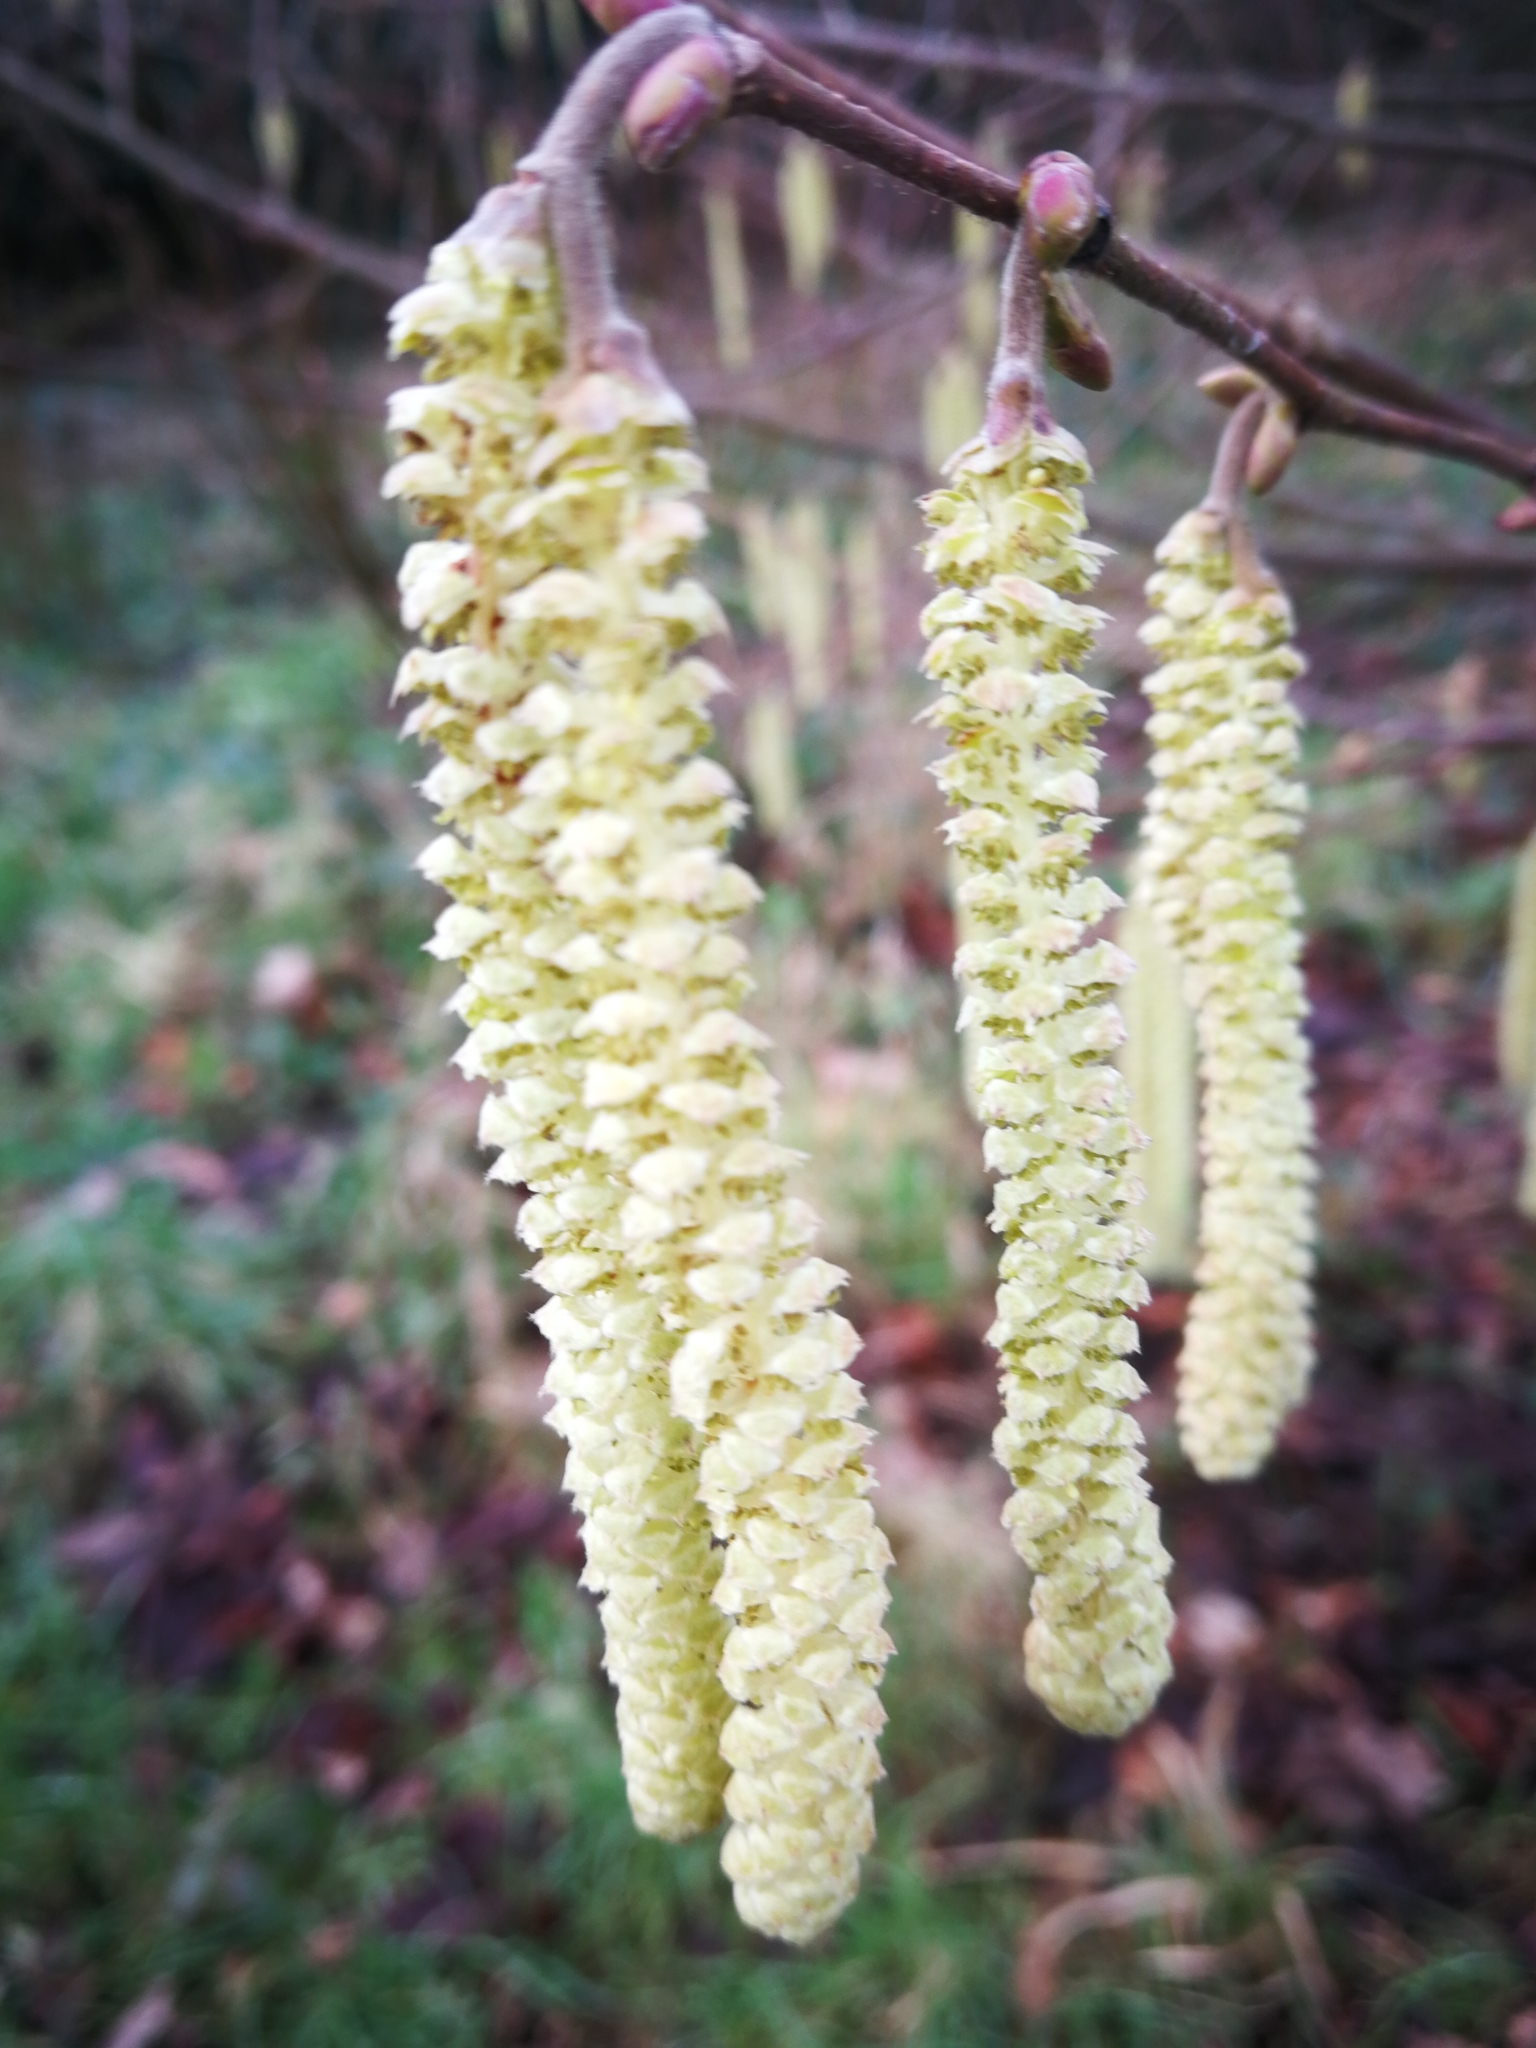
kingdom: Plantae
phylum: Tracheophyta
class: Magnoliopsida
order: Fagales
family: Betulaceae
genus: Corylus
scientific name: Corylus avellana
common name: European hazel
